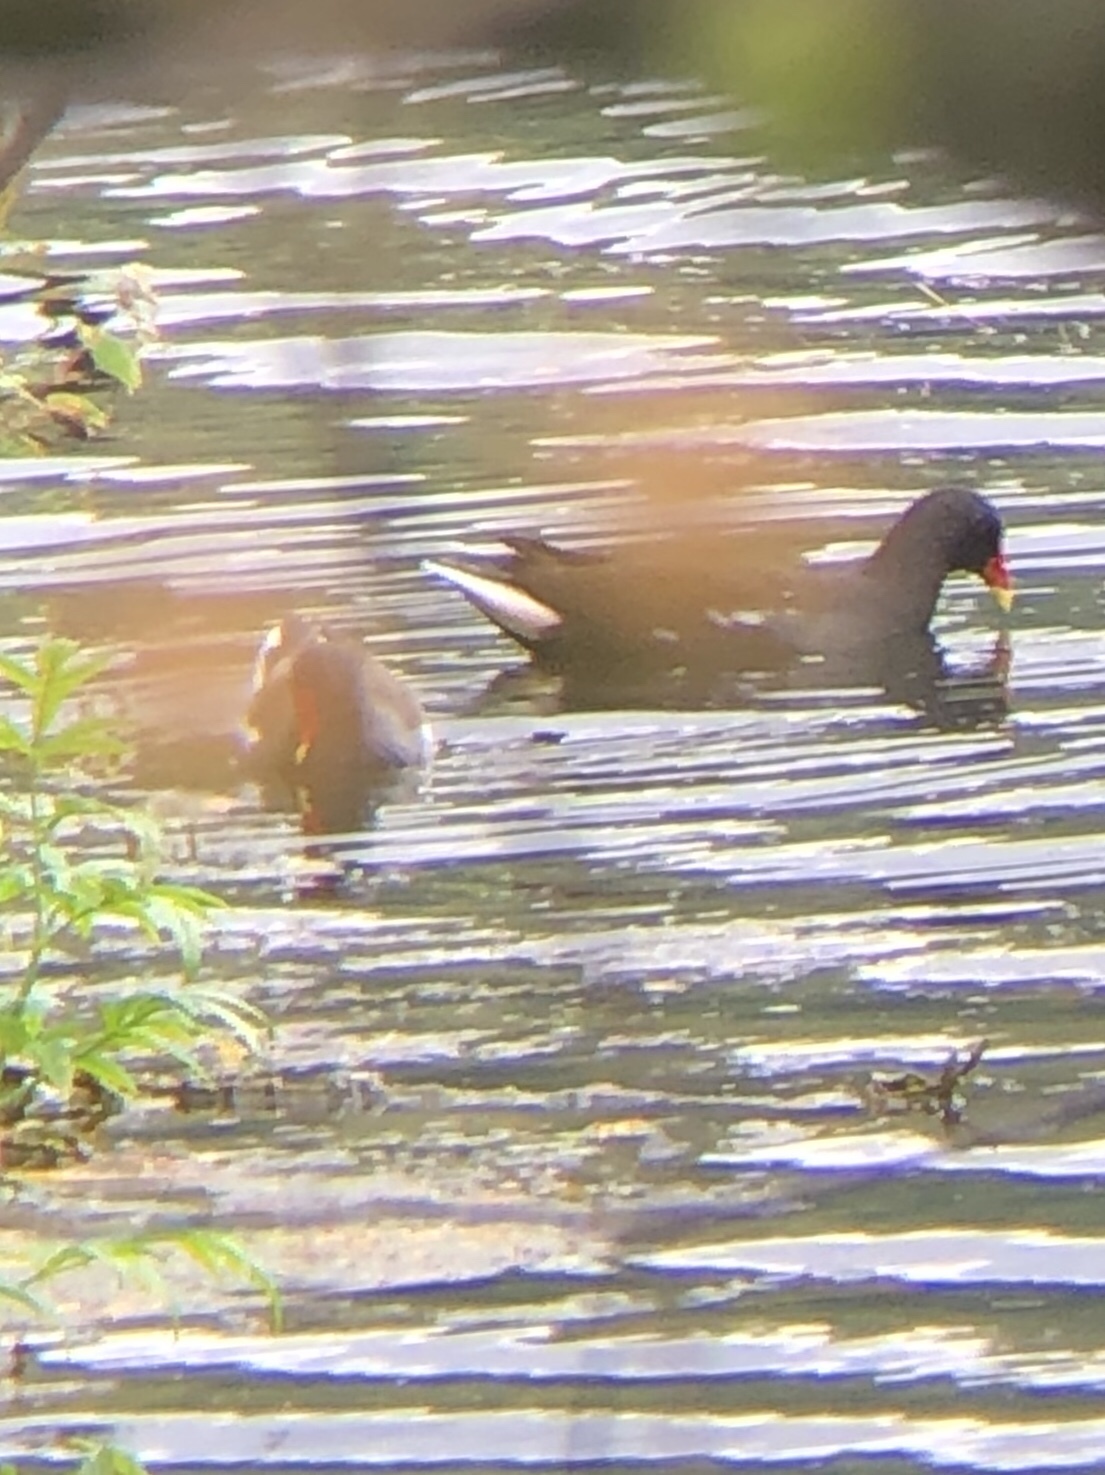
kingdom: Animalia
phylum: Chordata
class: Aves
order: Gruiformes
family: Rallidae
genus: Gallinula
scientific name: Gallinula chloropus
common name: Common moorhen
